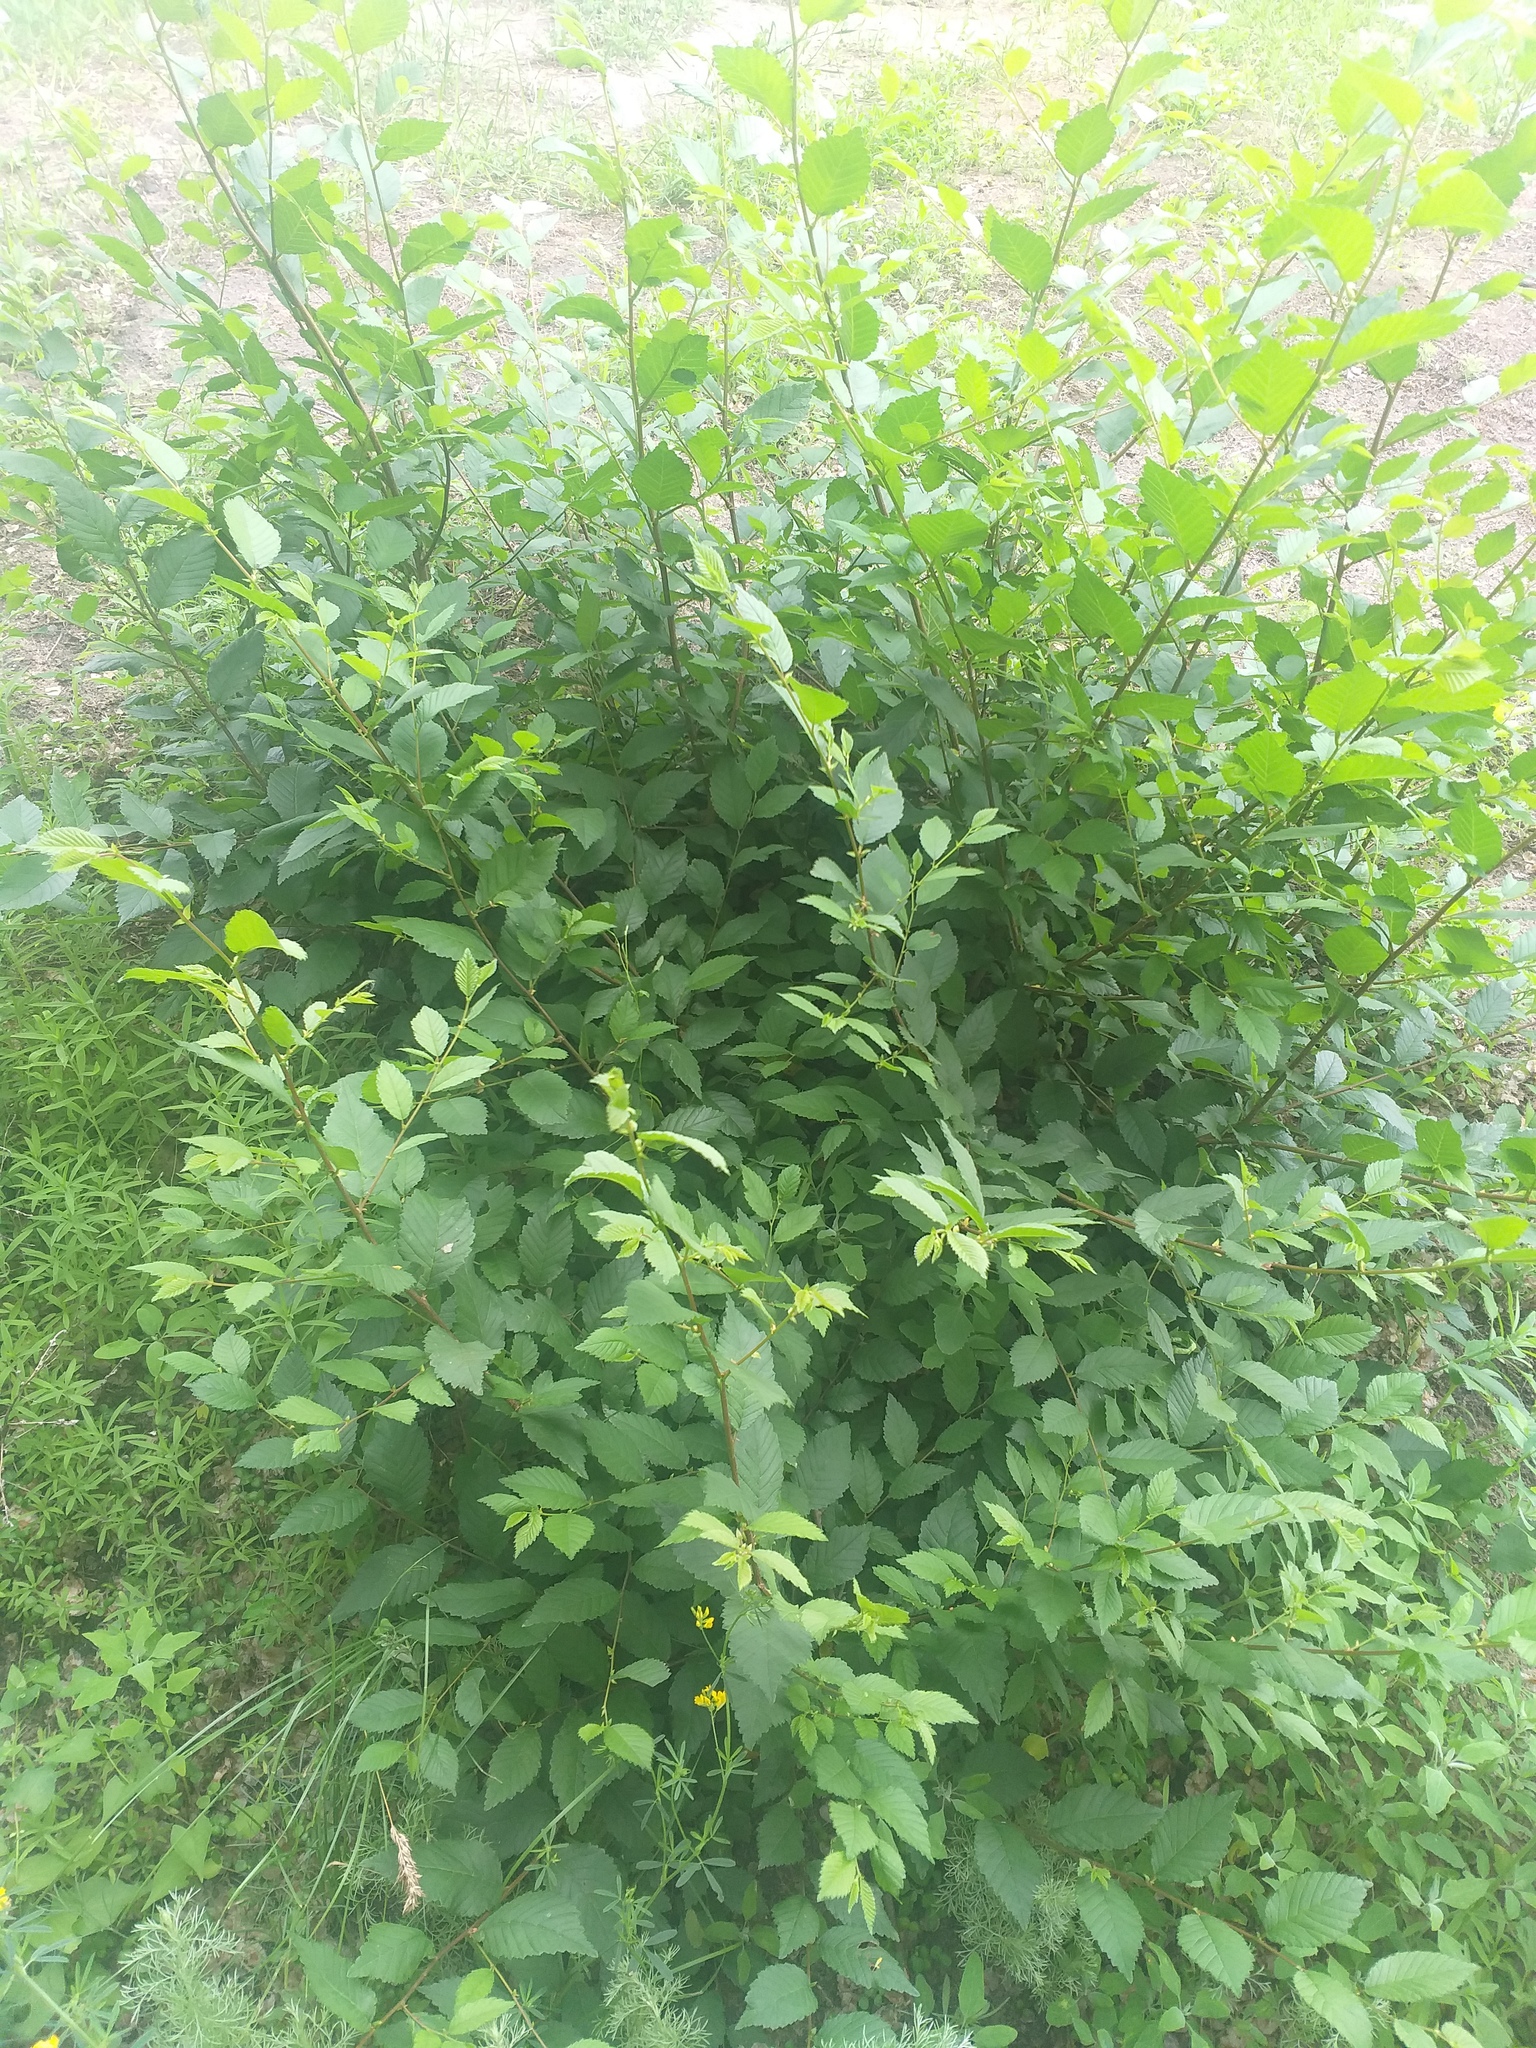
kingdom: Plantae
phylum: Tracheophyta
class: Magnoliopsida
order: Rosales
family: Ulmaceae
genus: Ulmus
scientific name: Ulmus pumila
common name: Siberian elm
